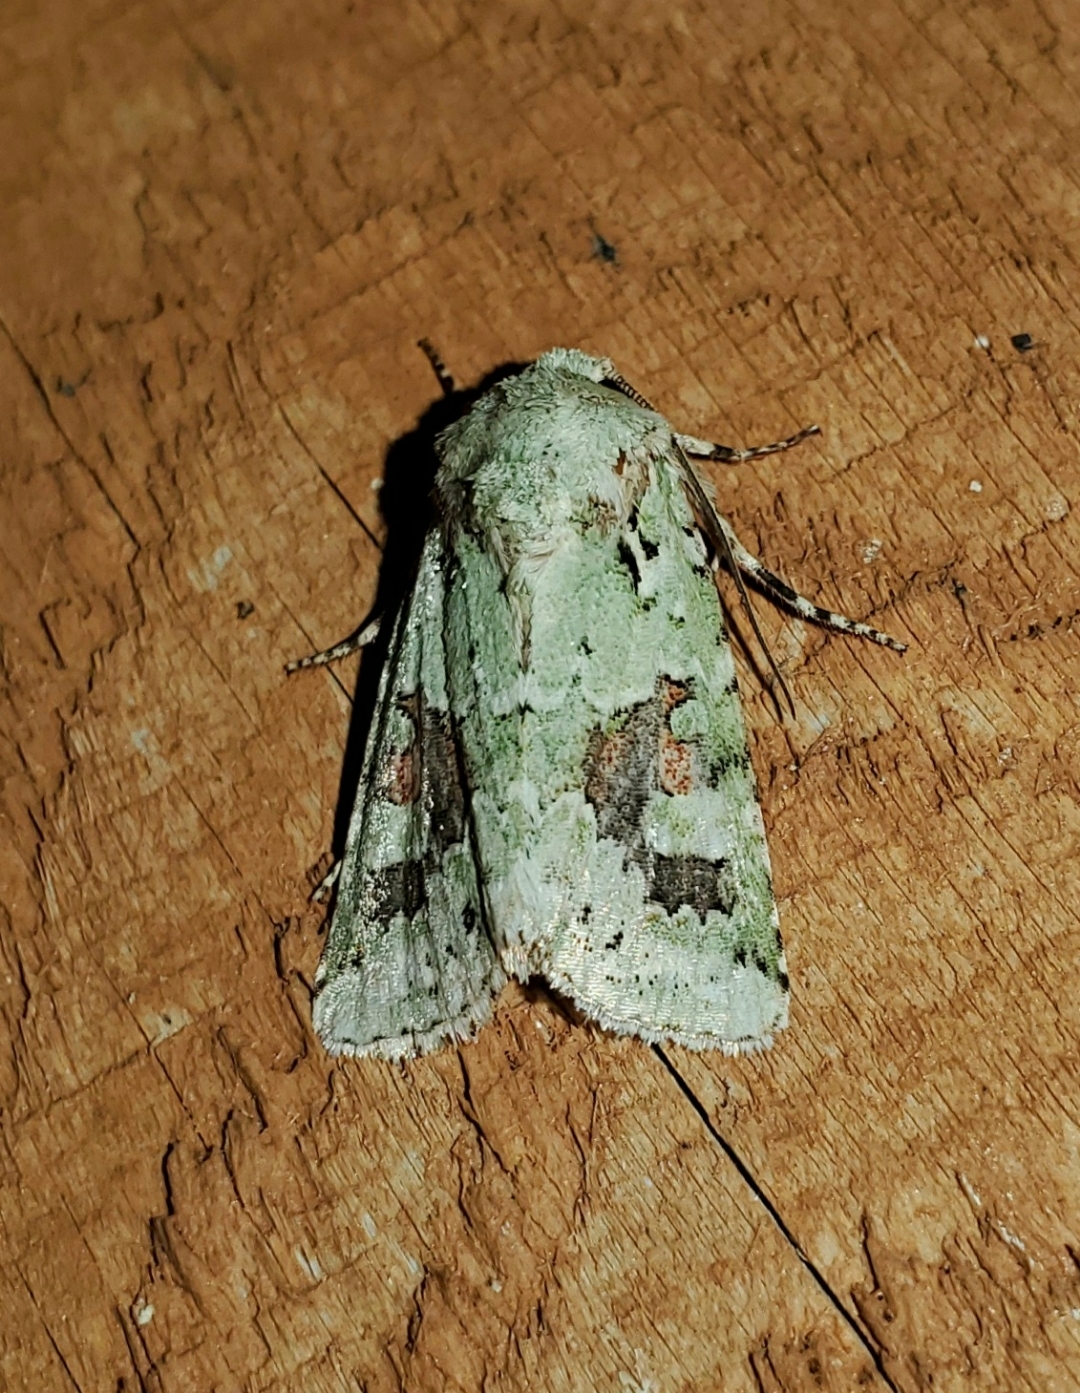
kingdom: Animalia
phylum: Arthropoda
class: Insecta
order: Lepidoptera
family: Noctuidae
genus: Lacinipolia
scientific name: Lacinipolia laudabilis
